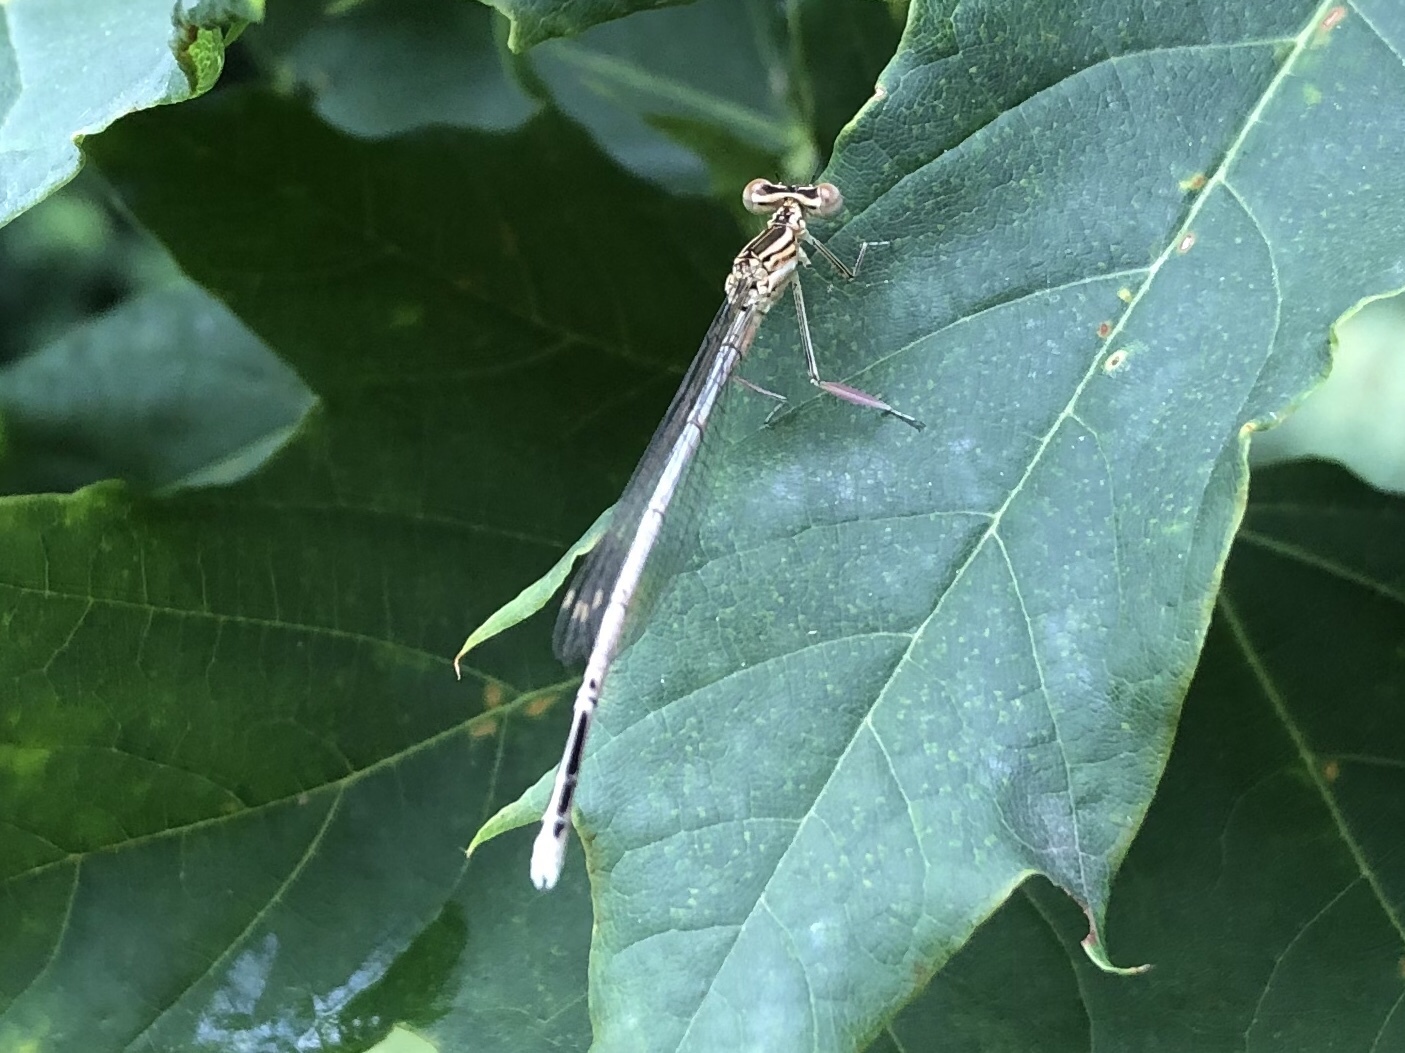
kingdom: Animalia
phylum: Arthropoda
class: Insecta
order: Odonata
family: Platycnemididae
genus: Platycnemis
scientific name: Platycnemis pennipes
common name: White-legged damselfly
